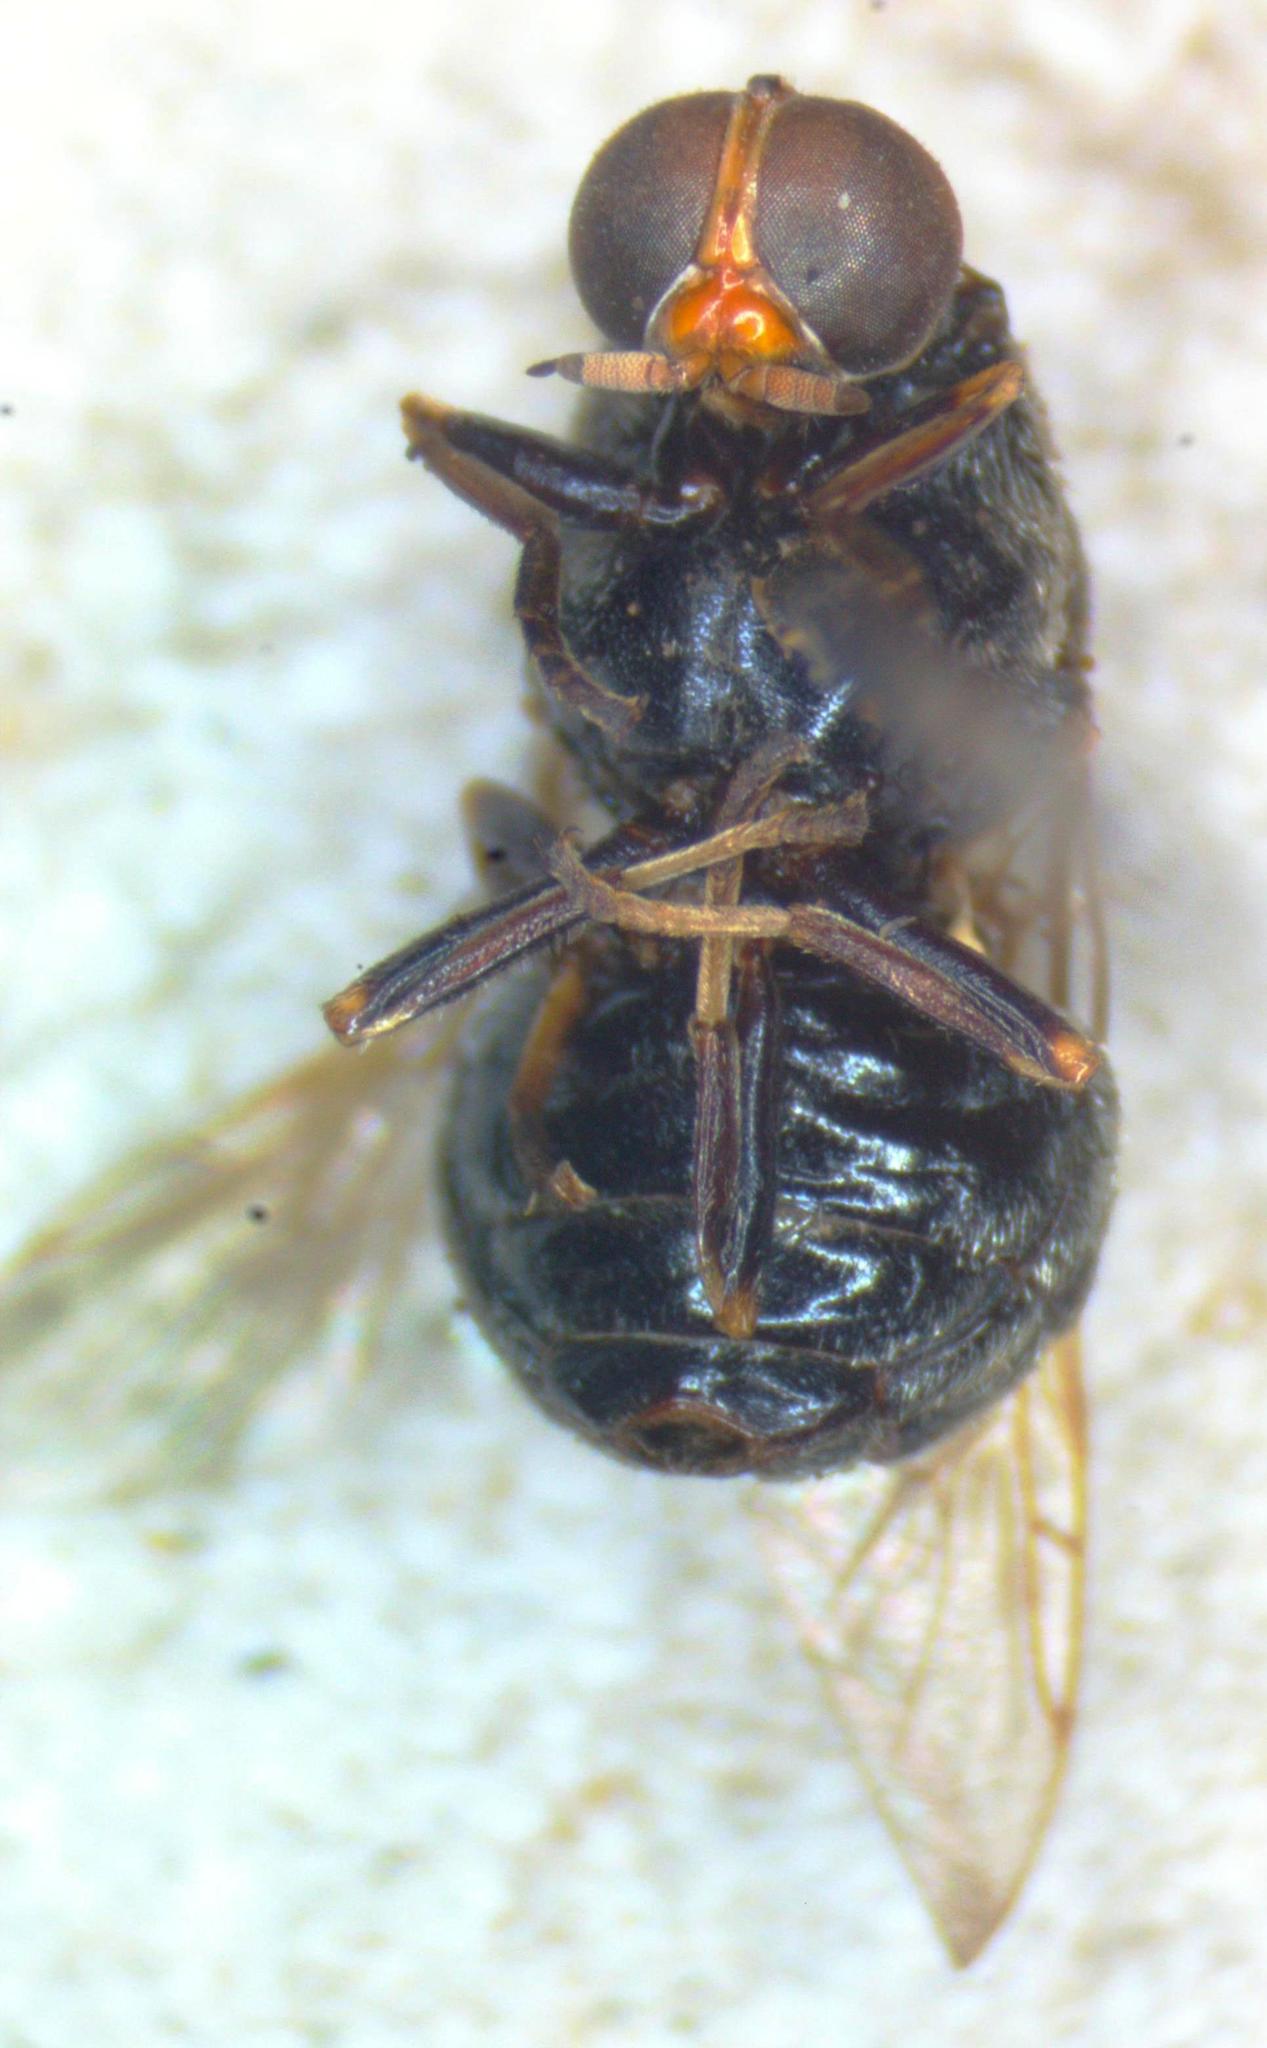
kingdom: Animalia
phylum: Arthropoda
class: Insecta
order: Diptera
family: Stratiomyidae
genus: Artemita
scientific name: Artemita bellardii
